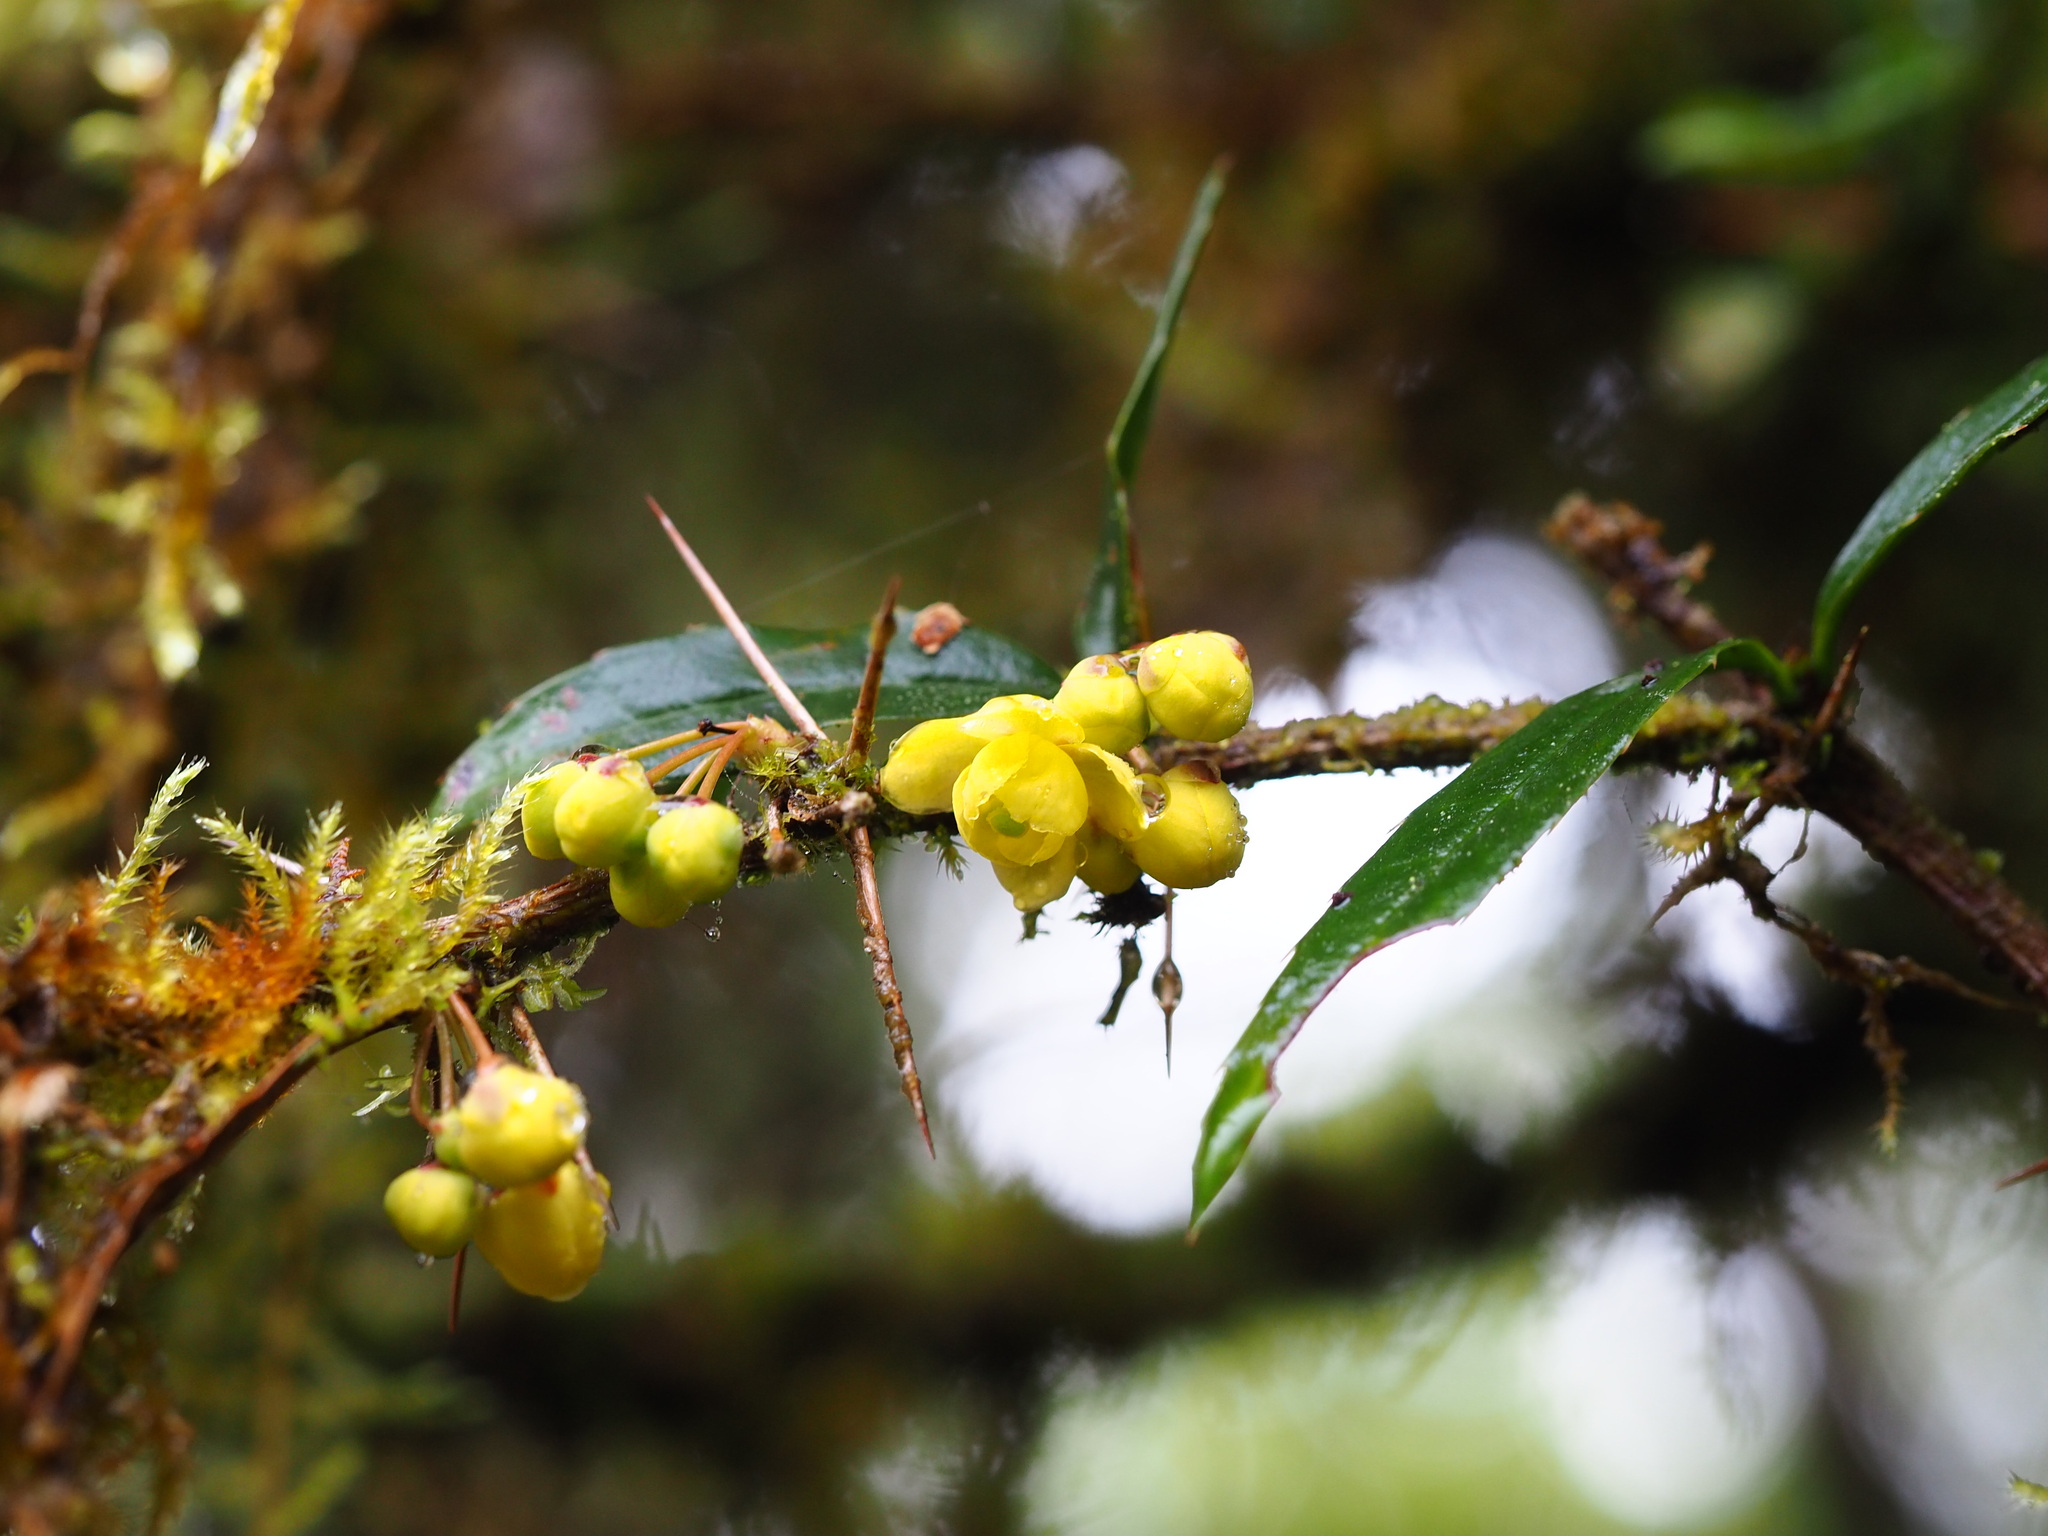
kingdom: Plantae
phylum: Tracheophyta
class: Magnoliopsida
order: Ranunculales
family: Berberidaceae
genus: Berberis
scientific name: Berberis hayatana
